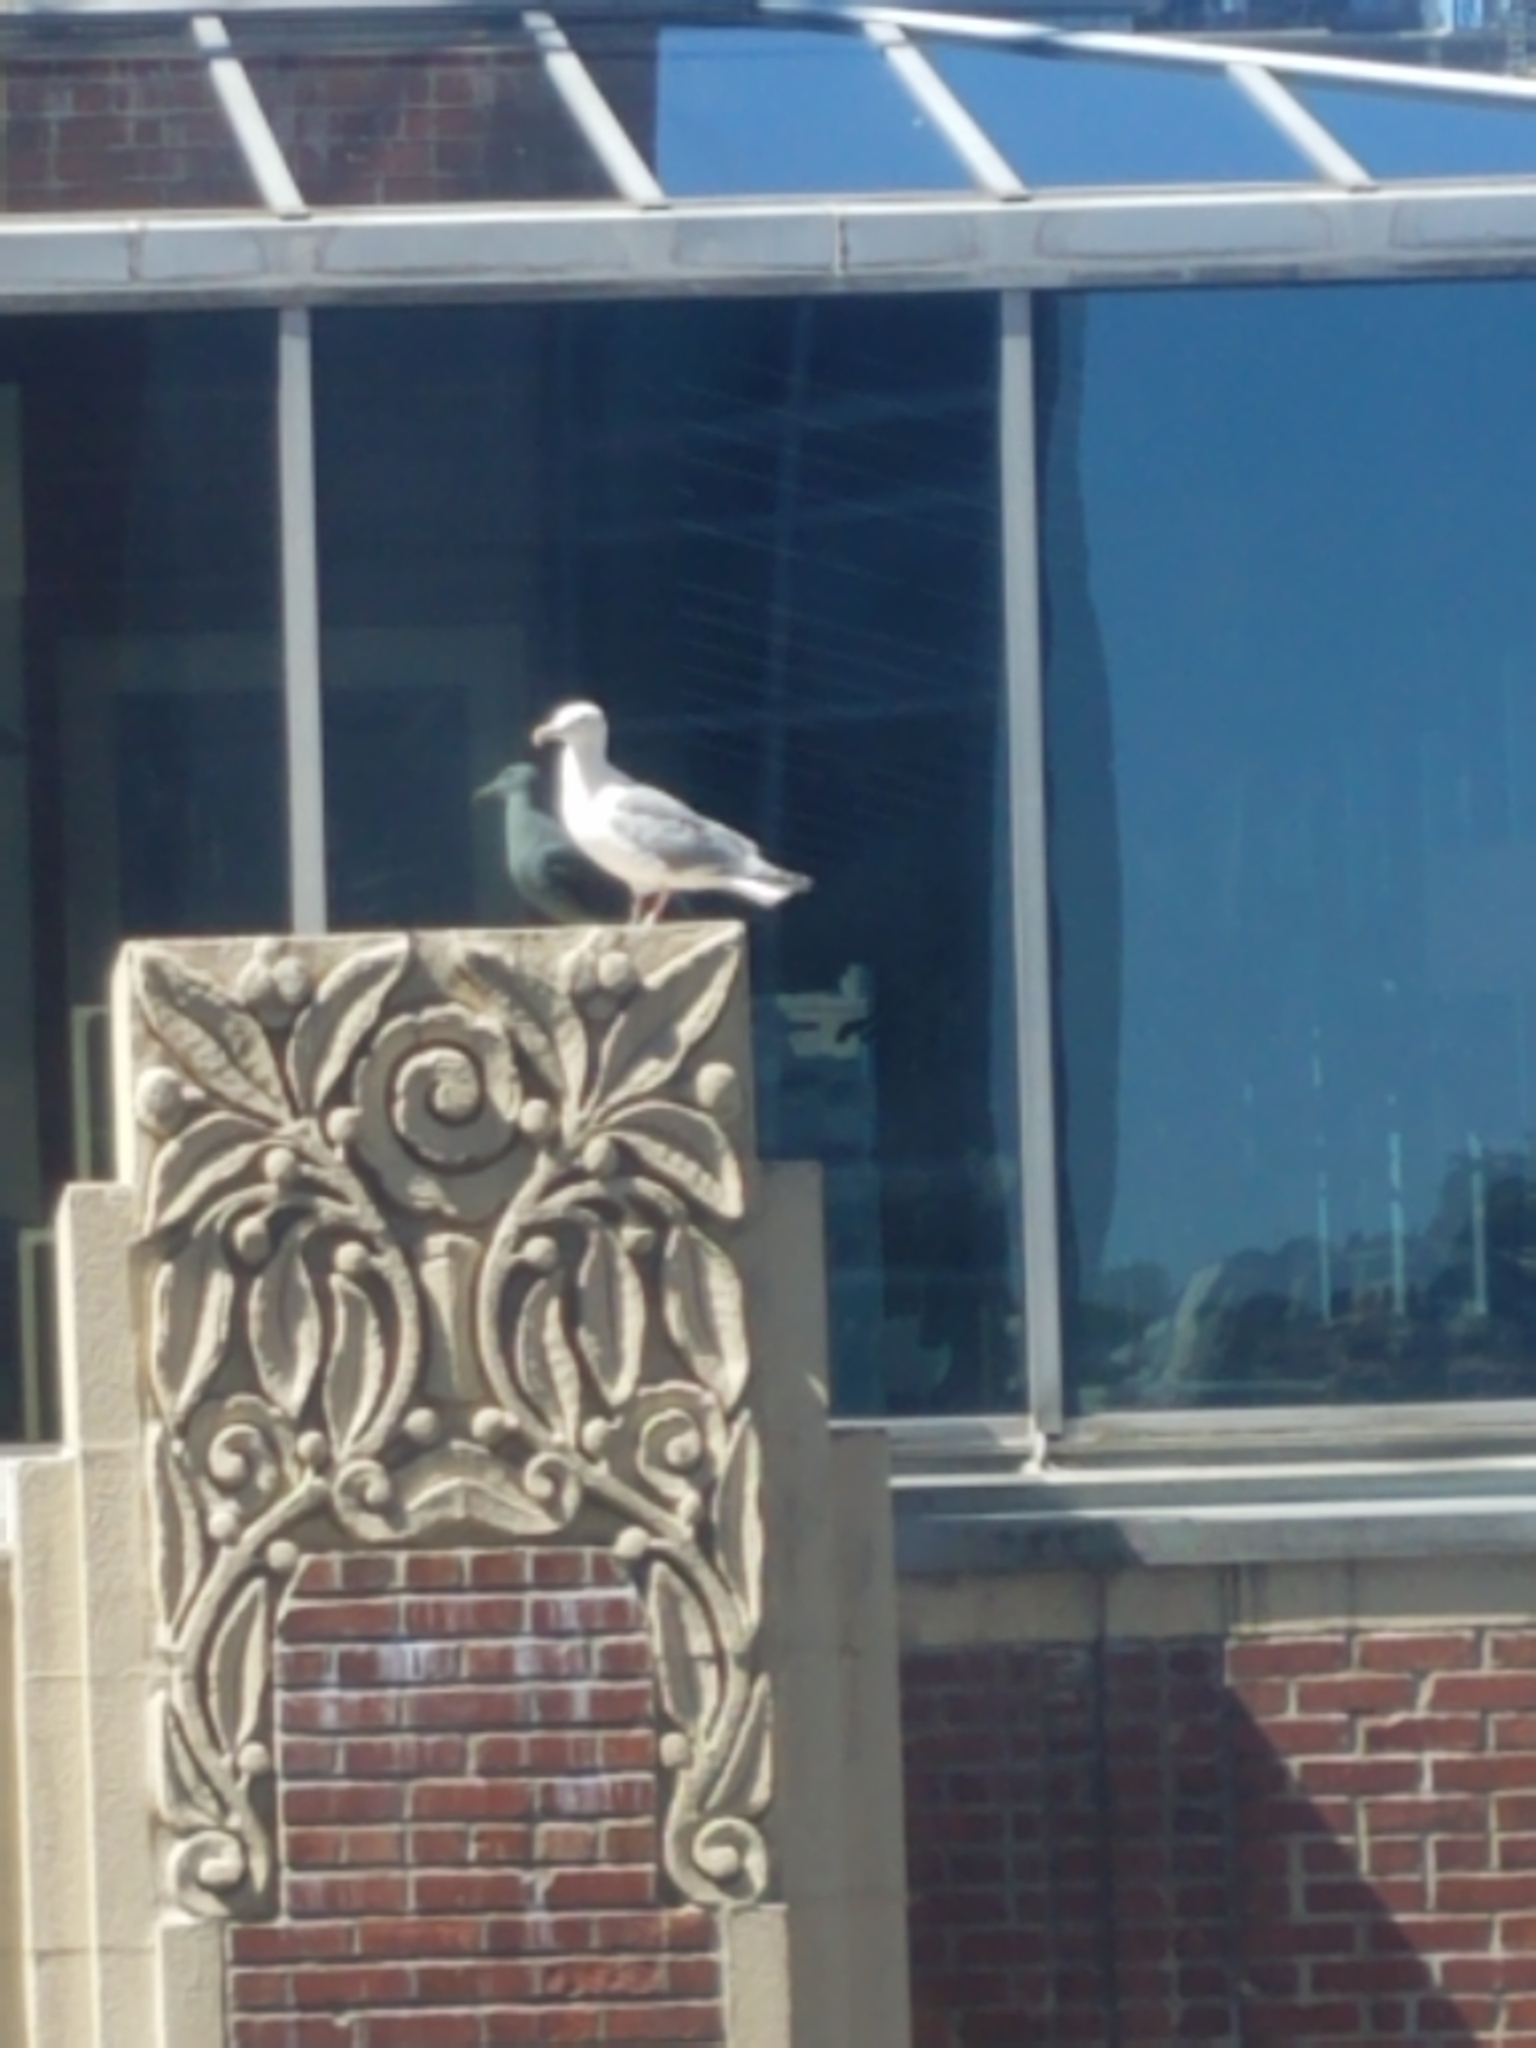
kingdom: Animalia
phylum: Chordata
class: Aves
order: Charadriiformes
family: Laridae
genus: Larus
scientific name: Larus glaucescens
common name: Glaucous-winged gull
